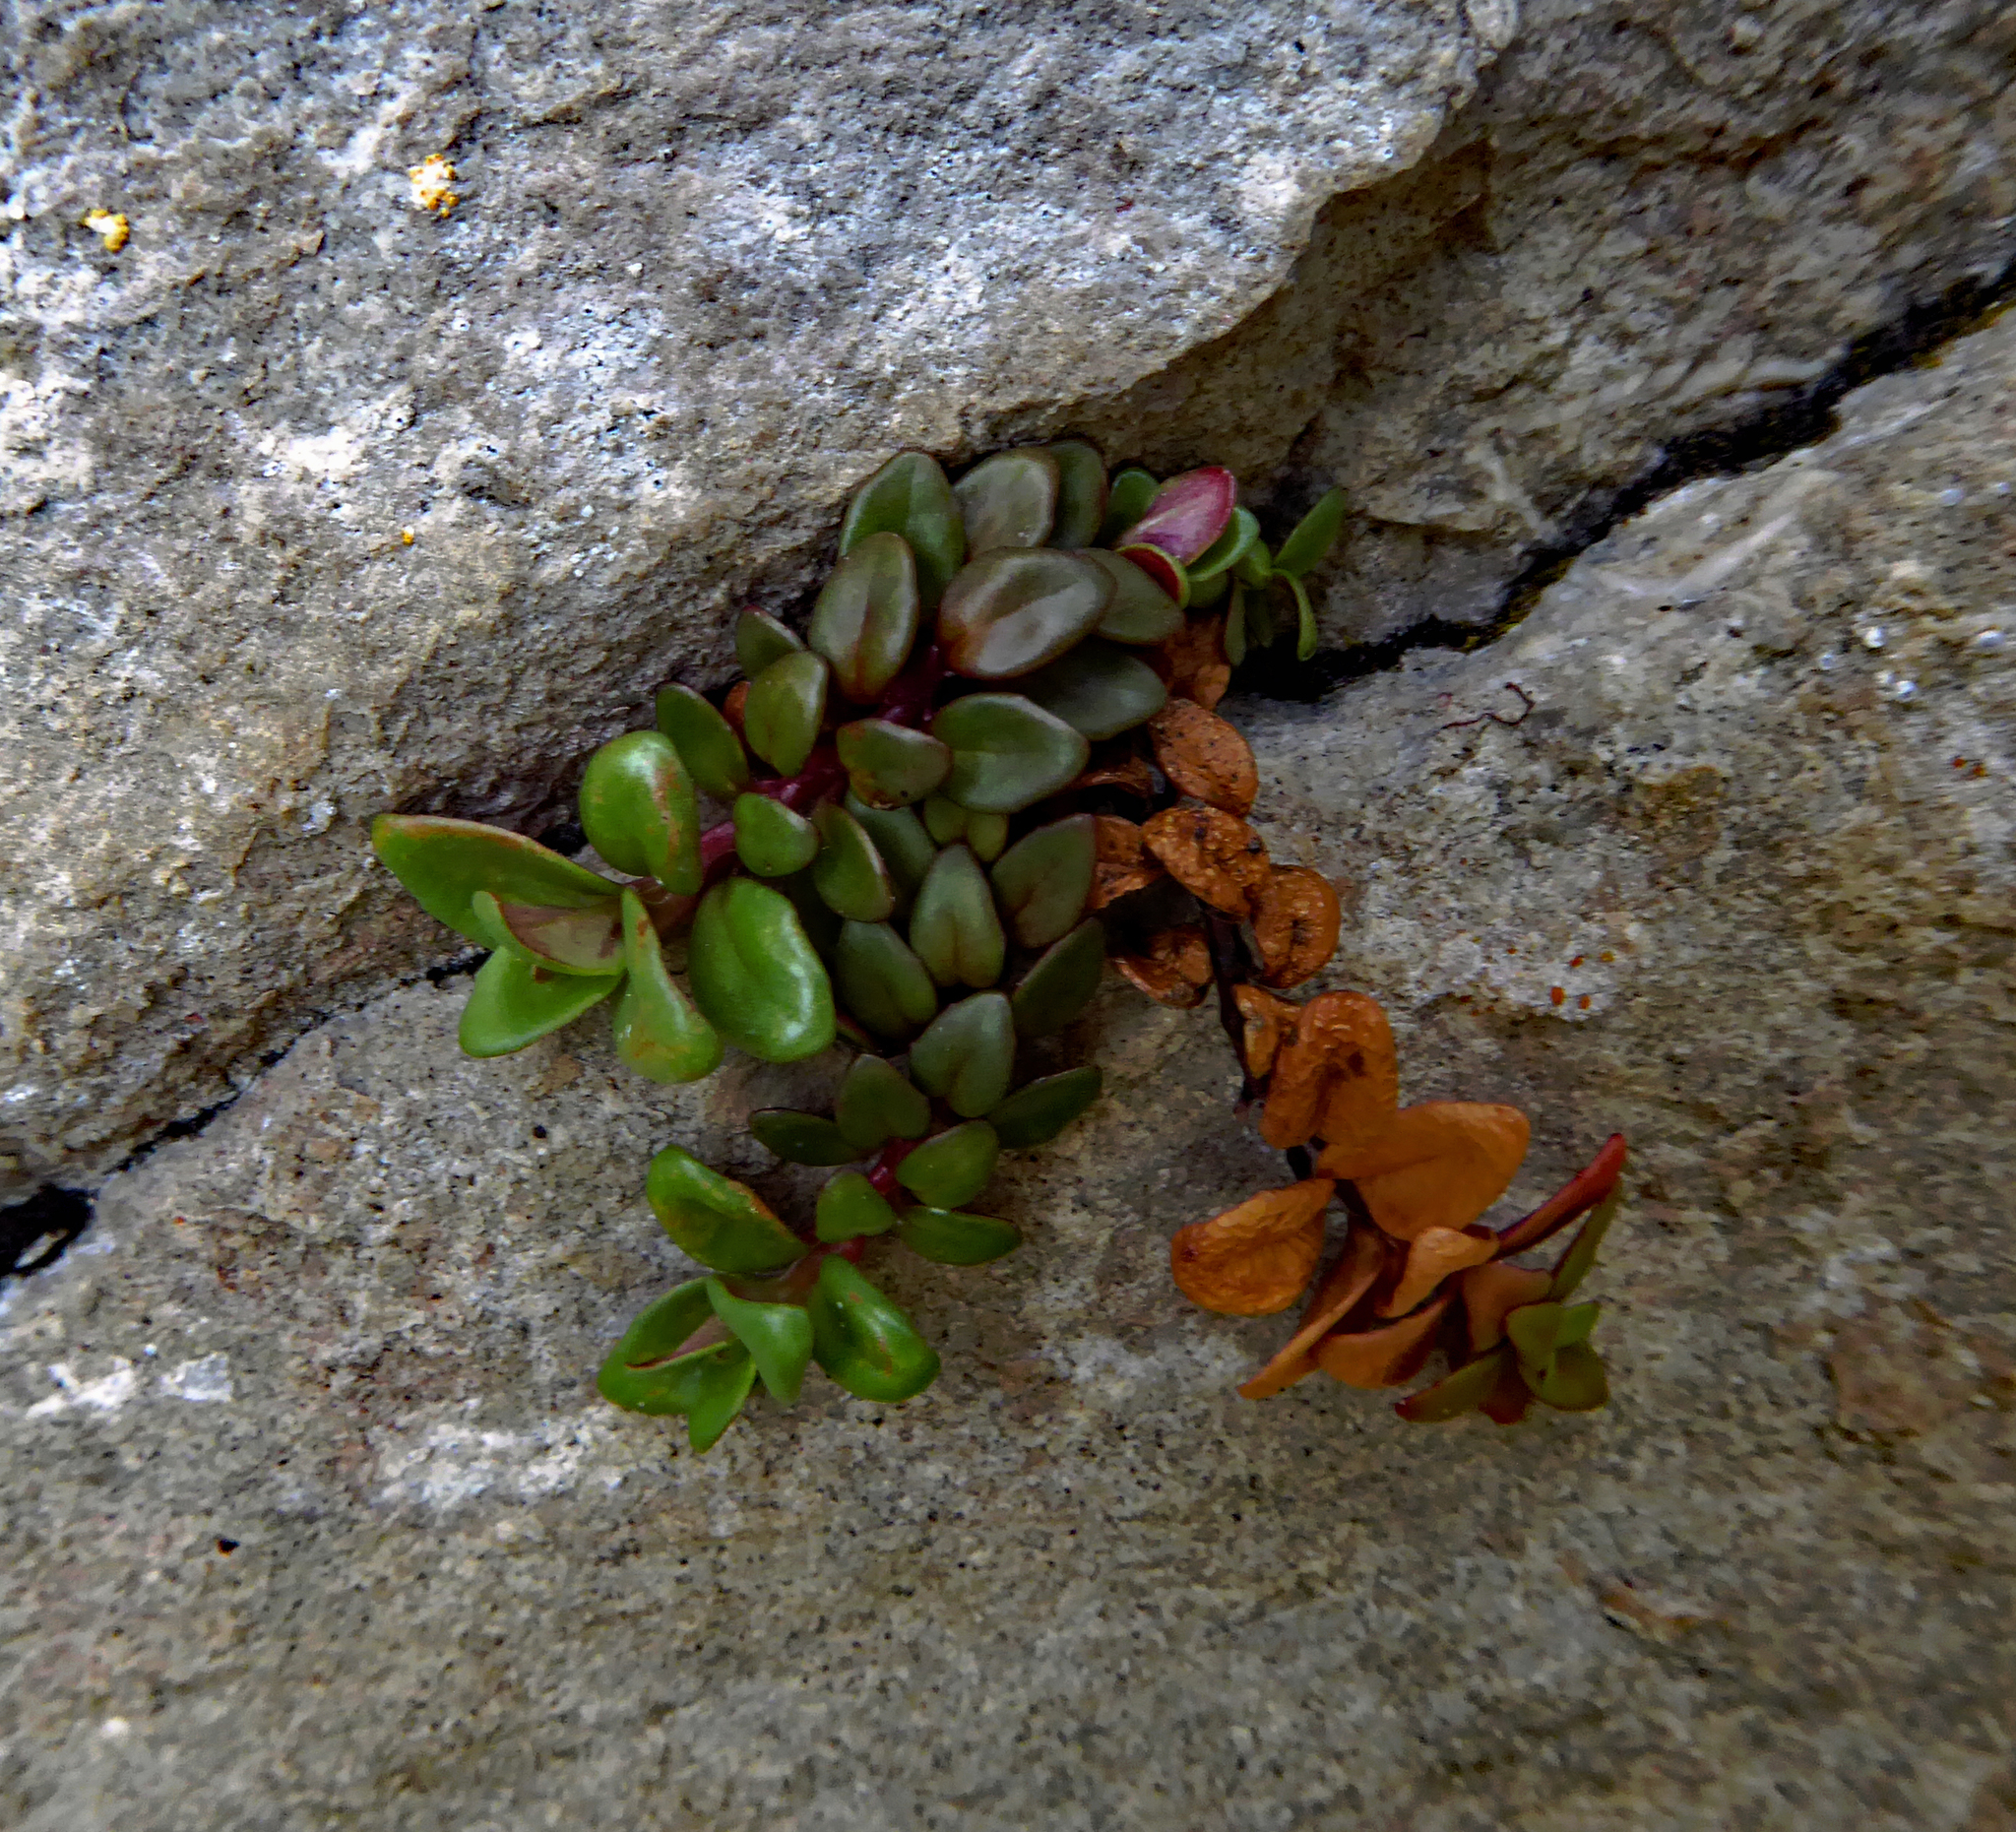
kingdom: Plantae
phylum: Tracheophyta
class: Magnoliopsida
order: Myrtales
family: Onagraceae
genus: Epilobium
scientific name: Epilobium gracilipes
